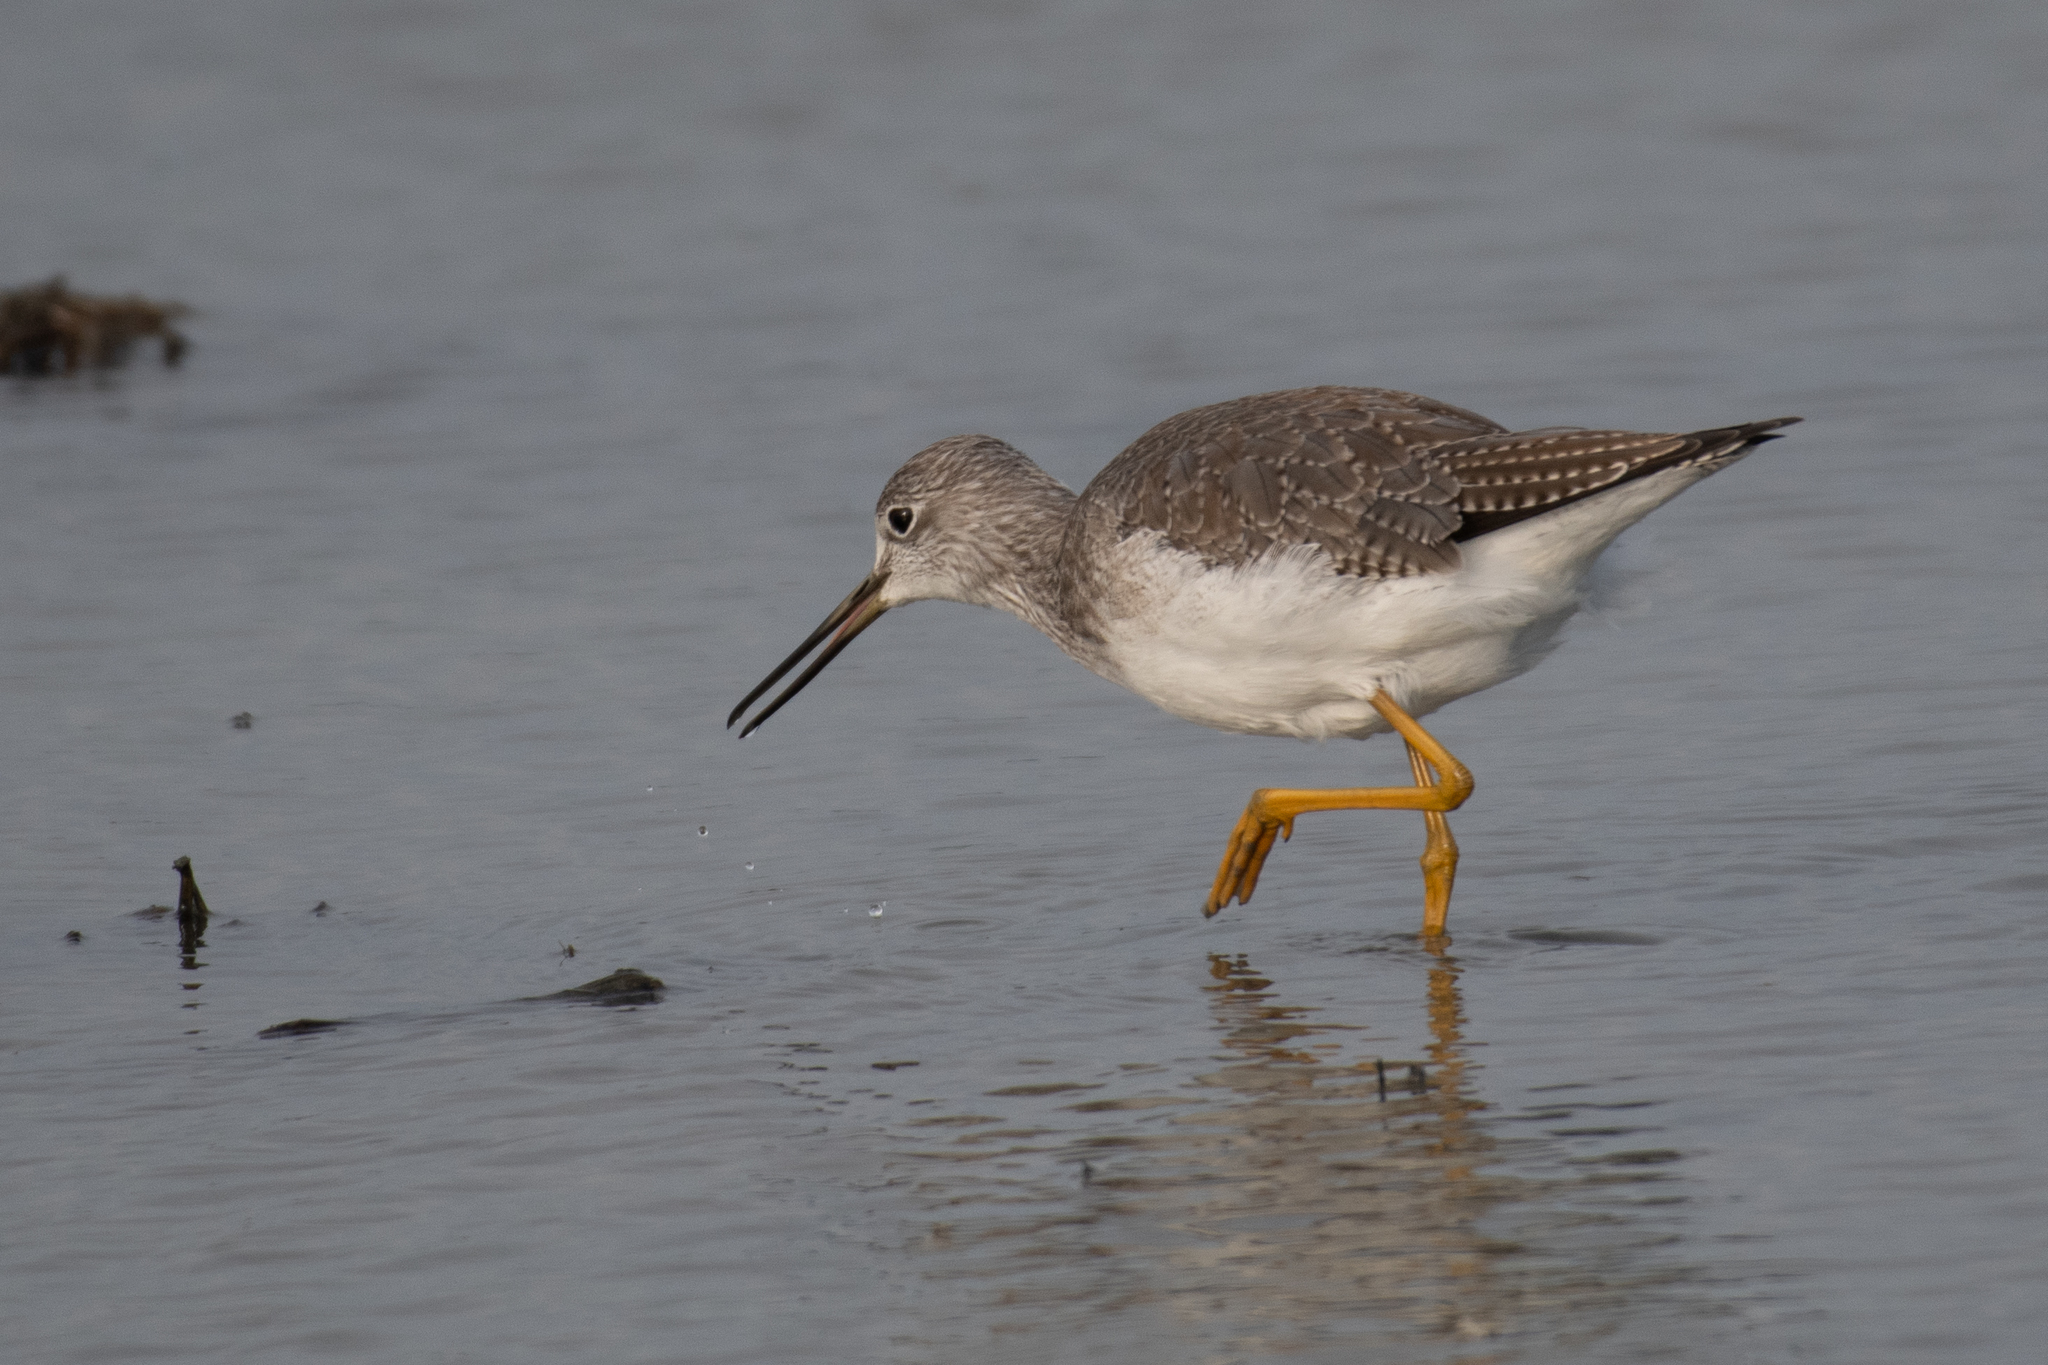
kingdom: Animalia
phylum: Chordata
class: Aves
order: Charadriiformes
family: Scolopacidae
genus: Tringa
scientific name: Tringa melanoleuca
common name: Greater yellowlegs
